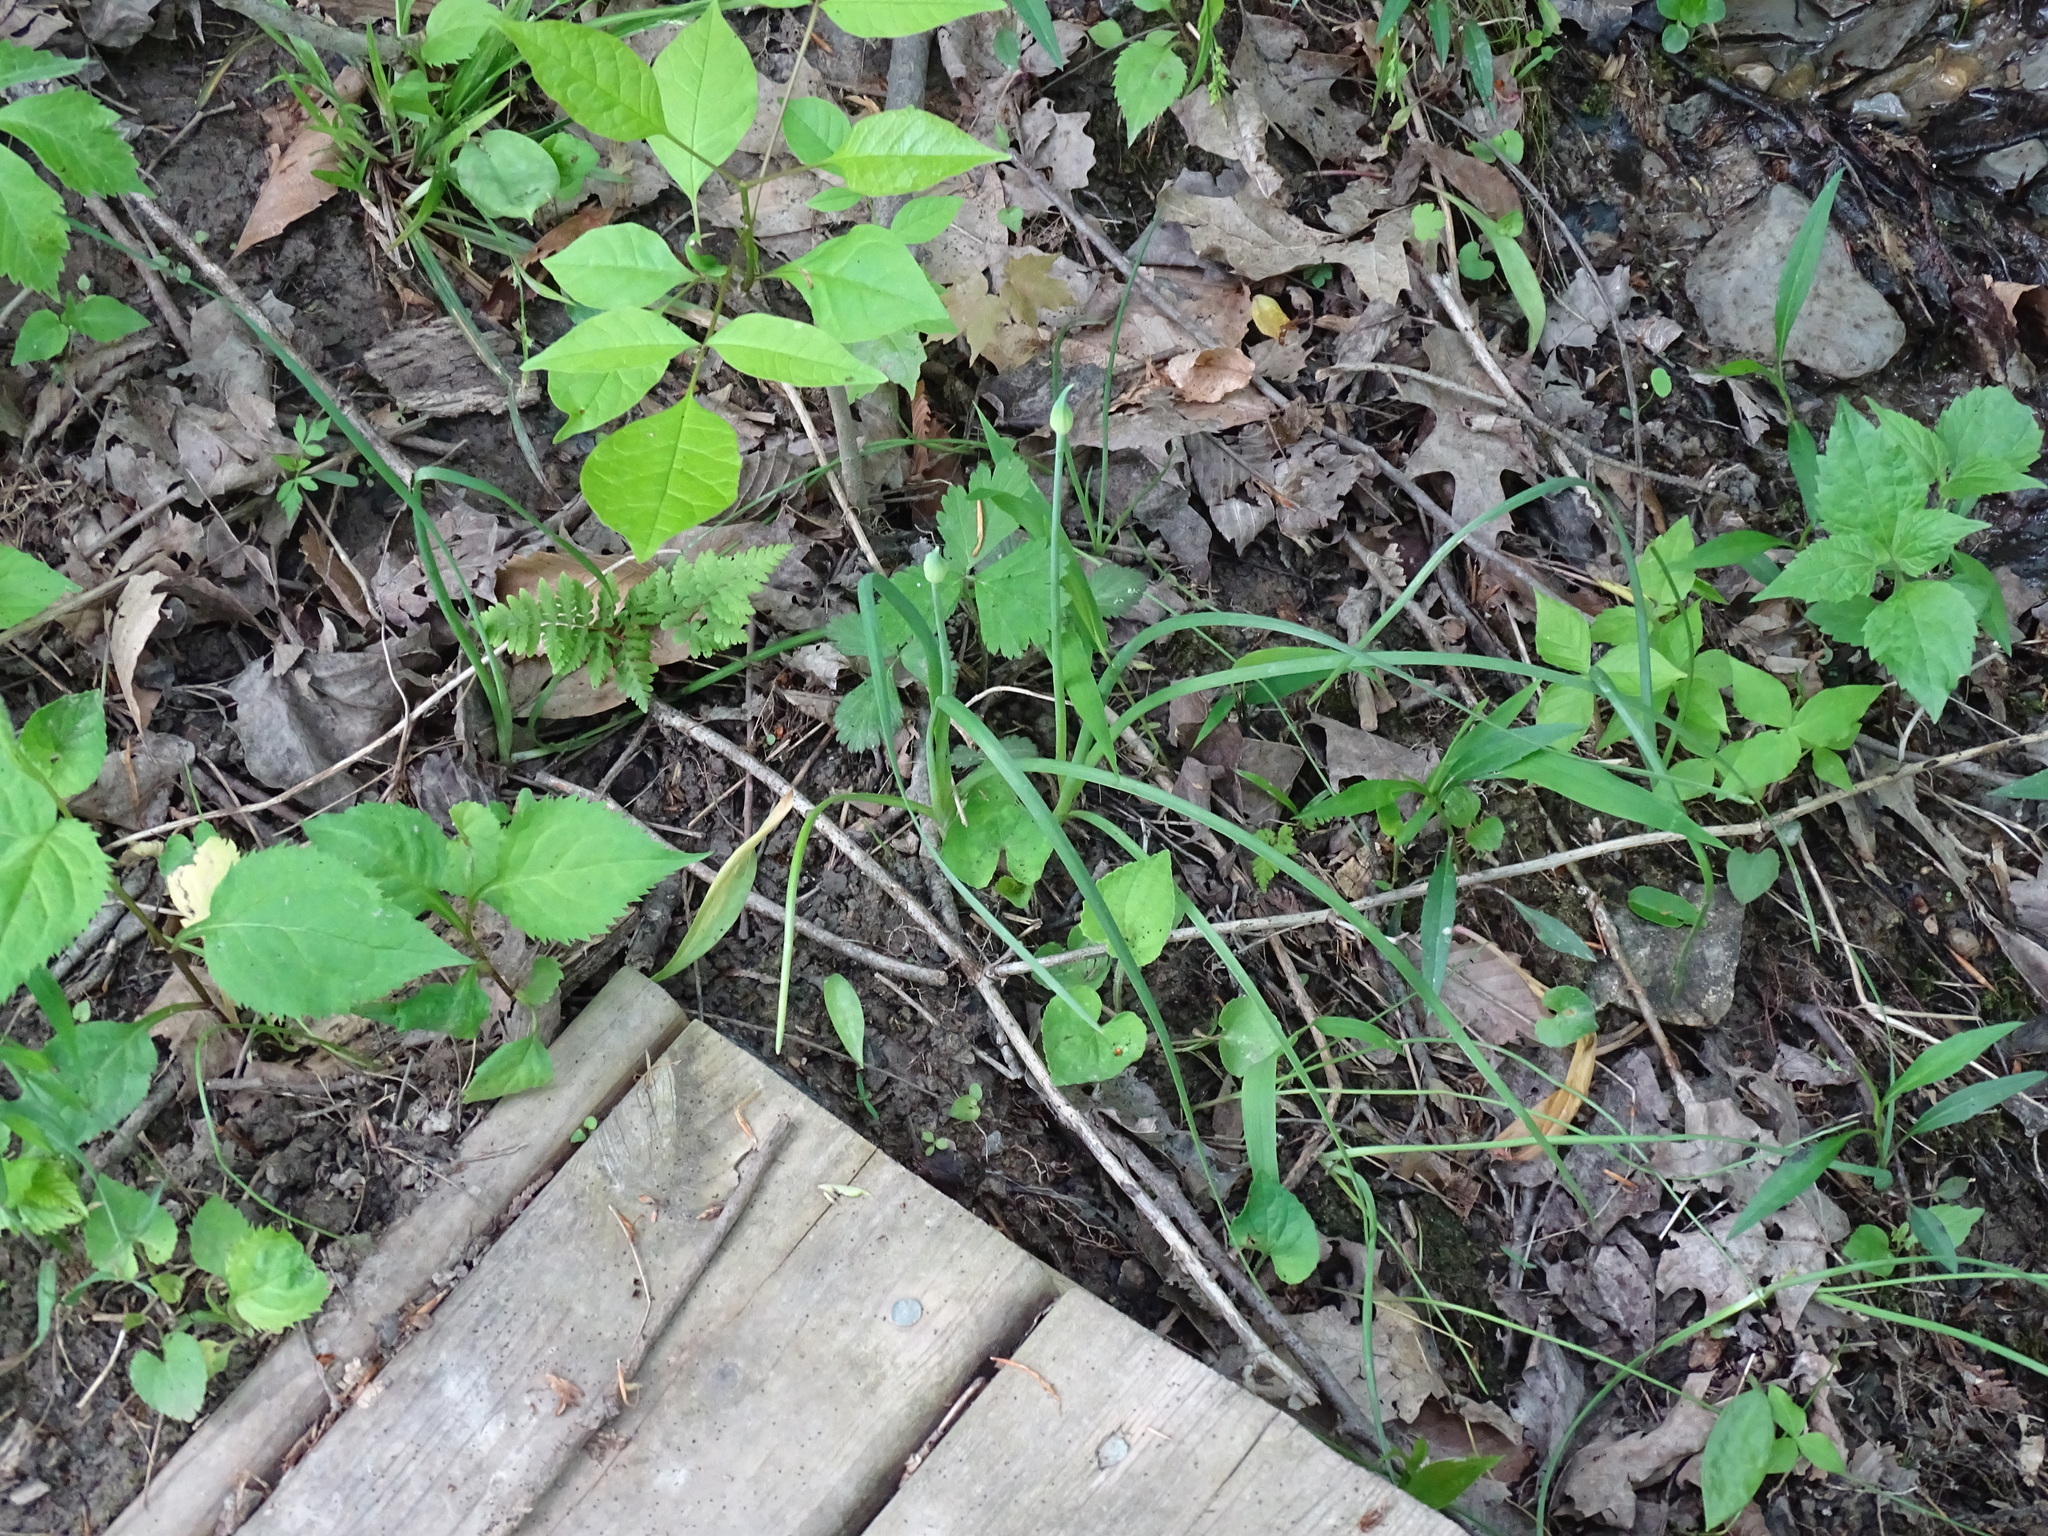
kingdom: Plantae
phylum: Tracheophyta
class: Liliopsida
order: Asparagales
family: Amaryllidaceae
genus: Allium
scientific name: Allium canadense
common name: Meadow garlic
